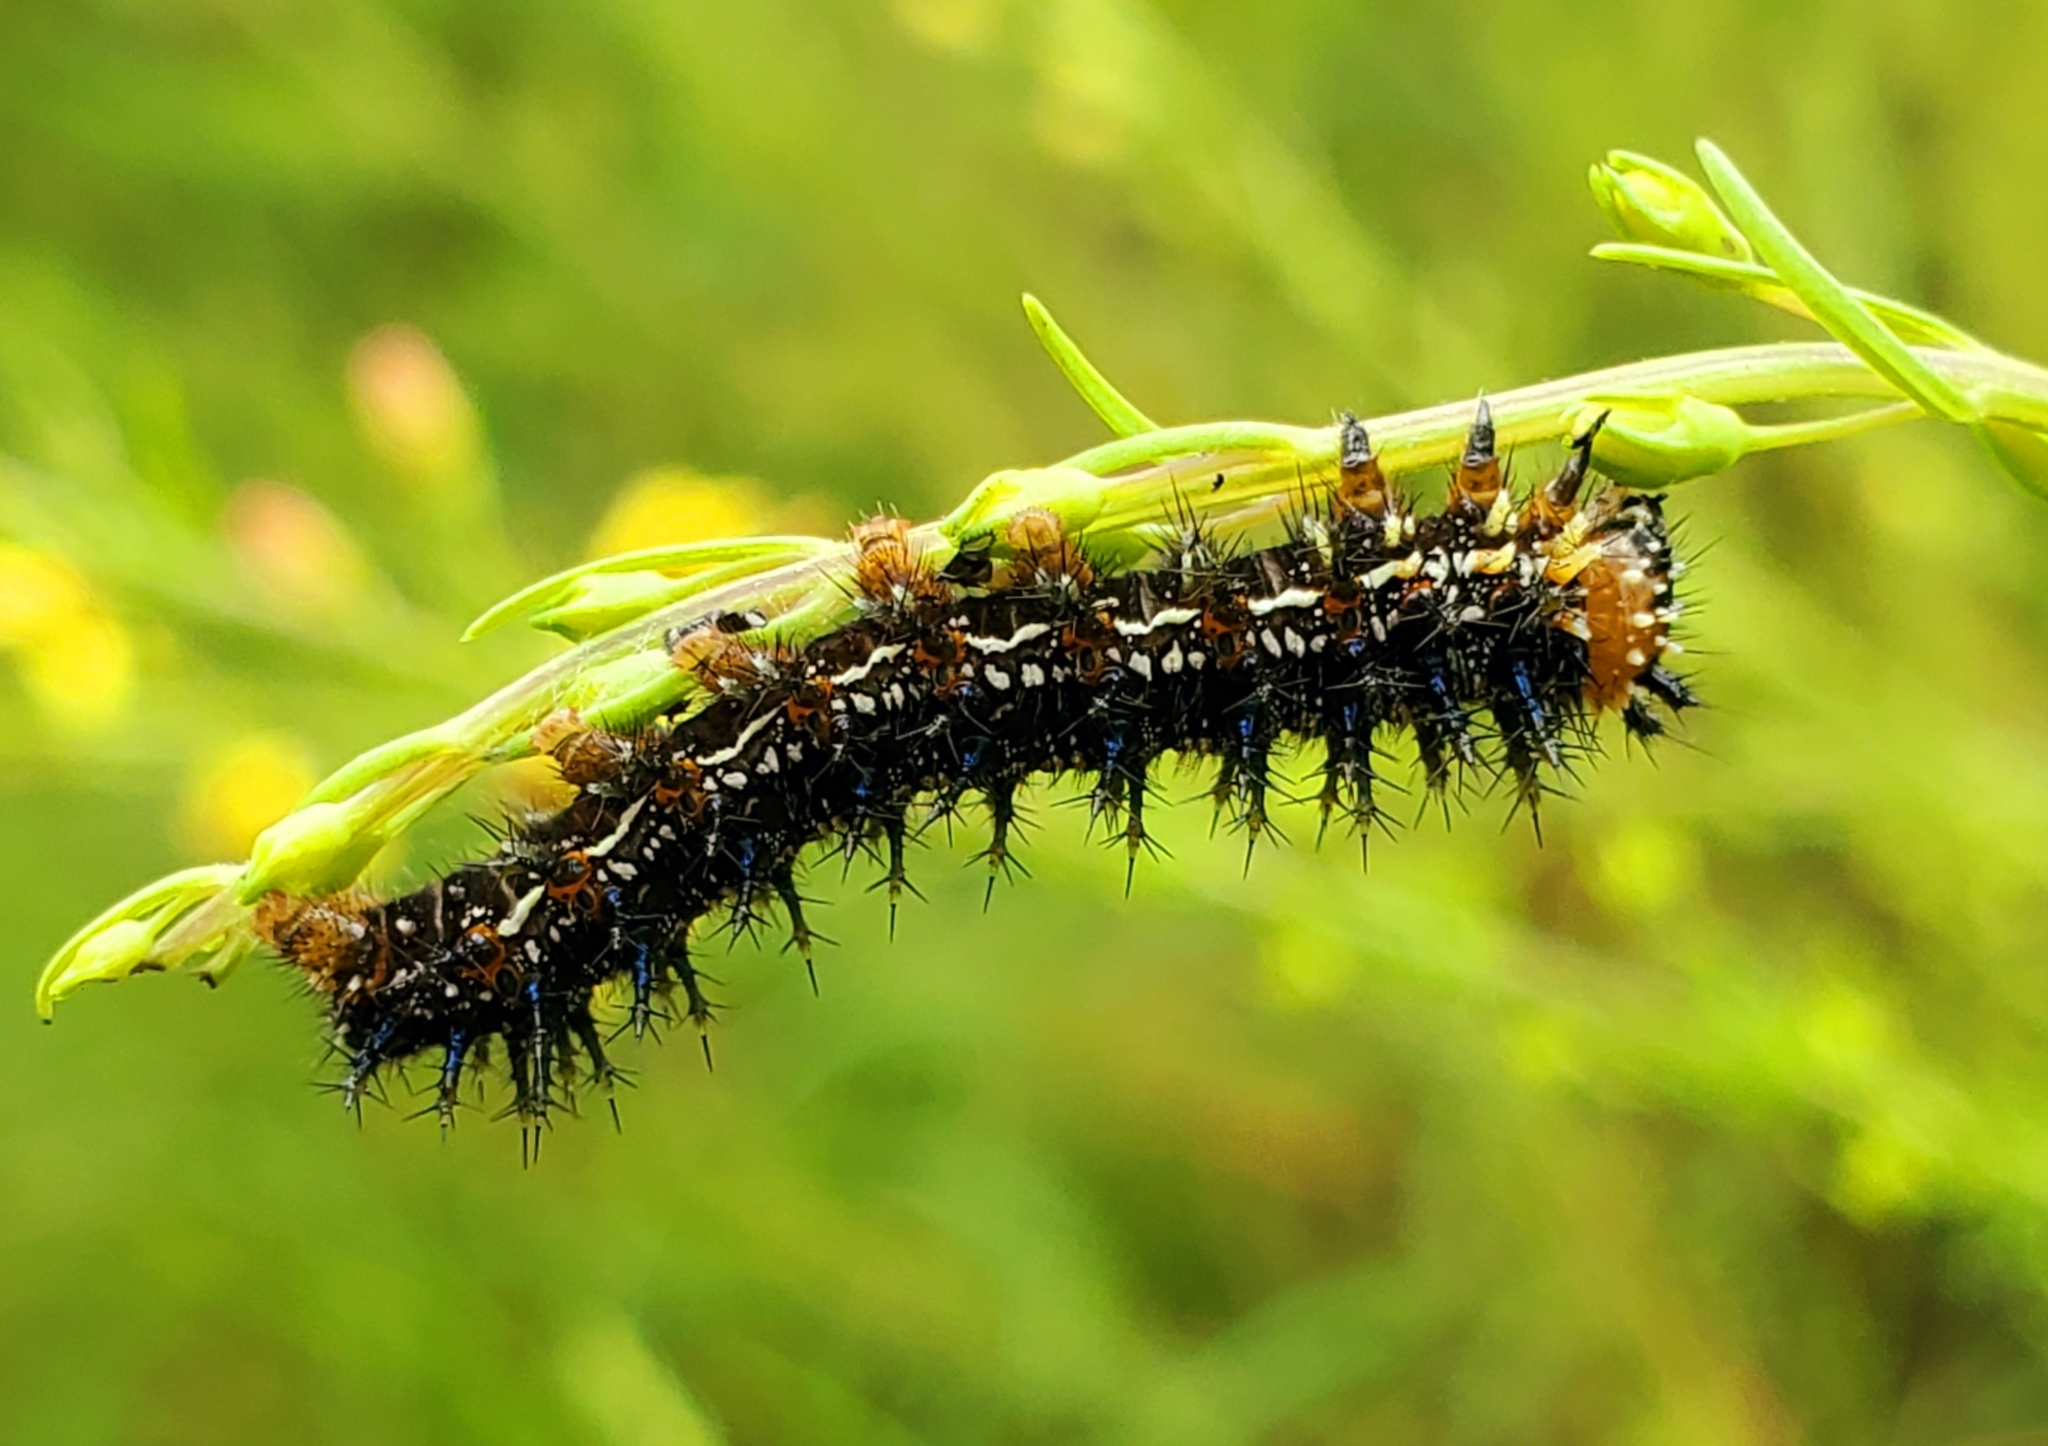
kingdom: Animalia
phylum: Arthropoda
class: Insecta
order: Lepidoptera
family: Nymphalidae
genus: Junonia
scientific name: Junonia coenia
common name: Common buckeye
